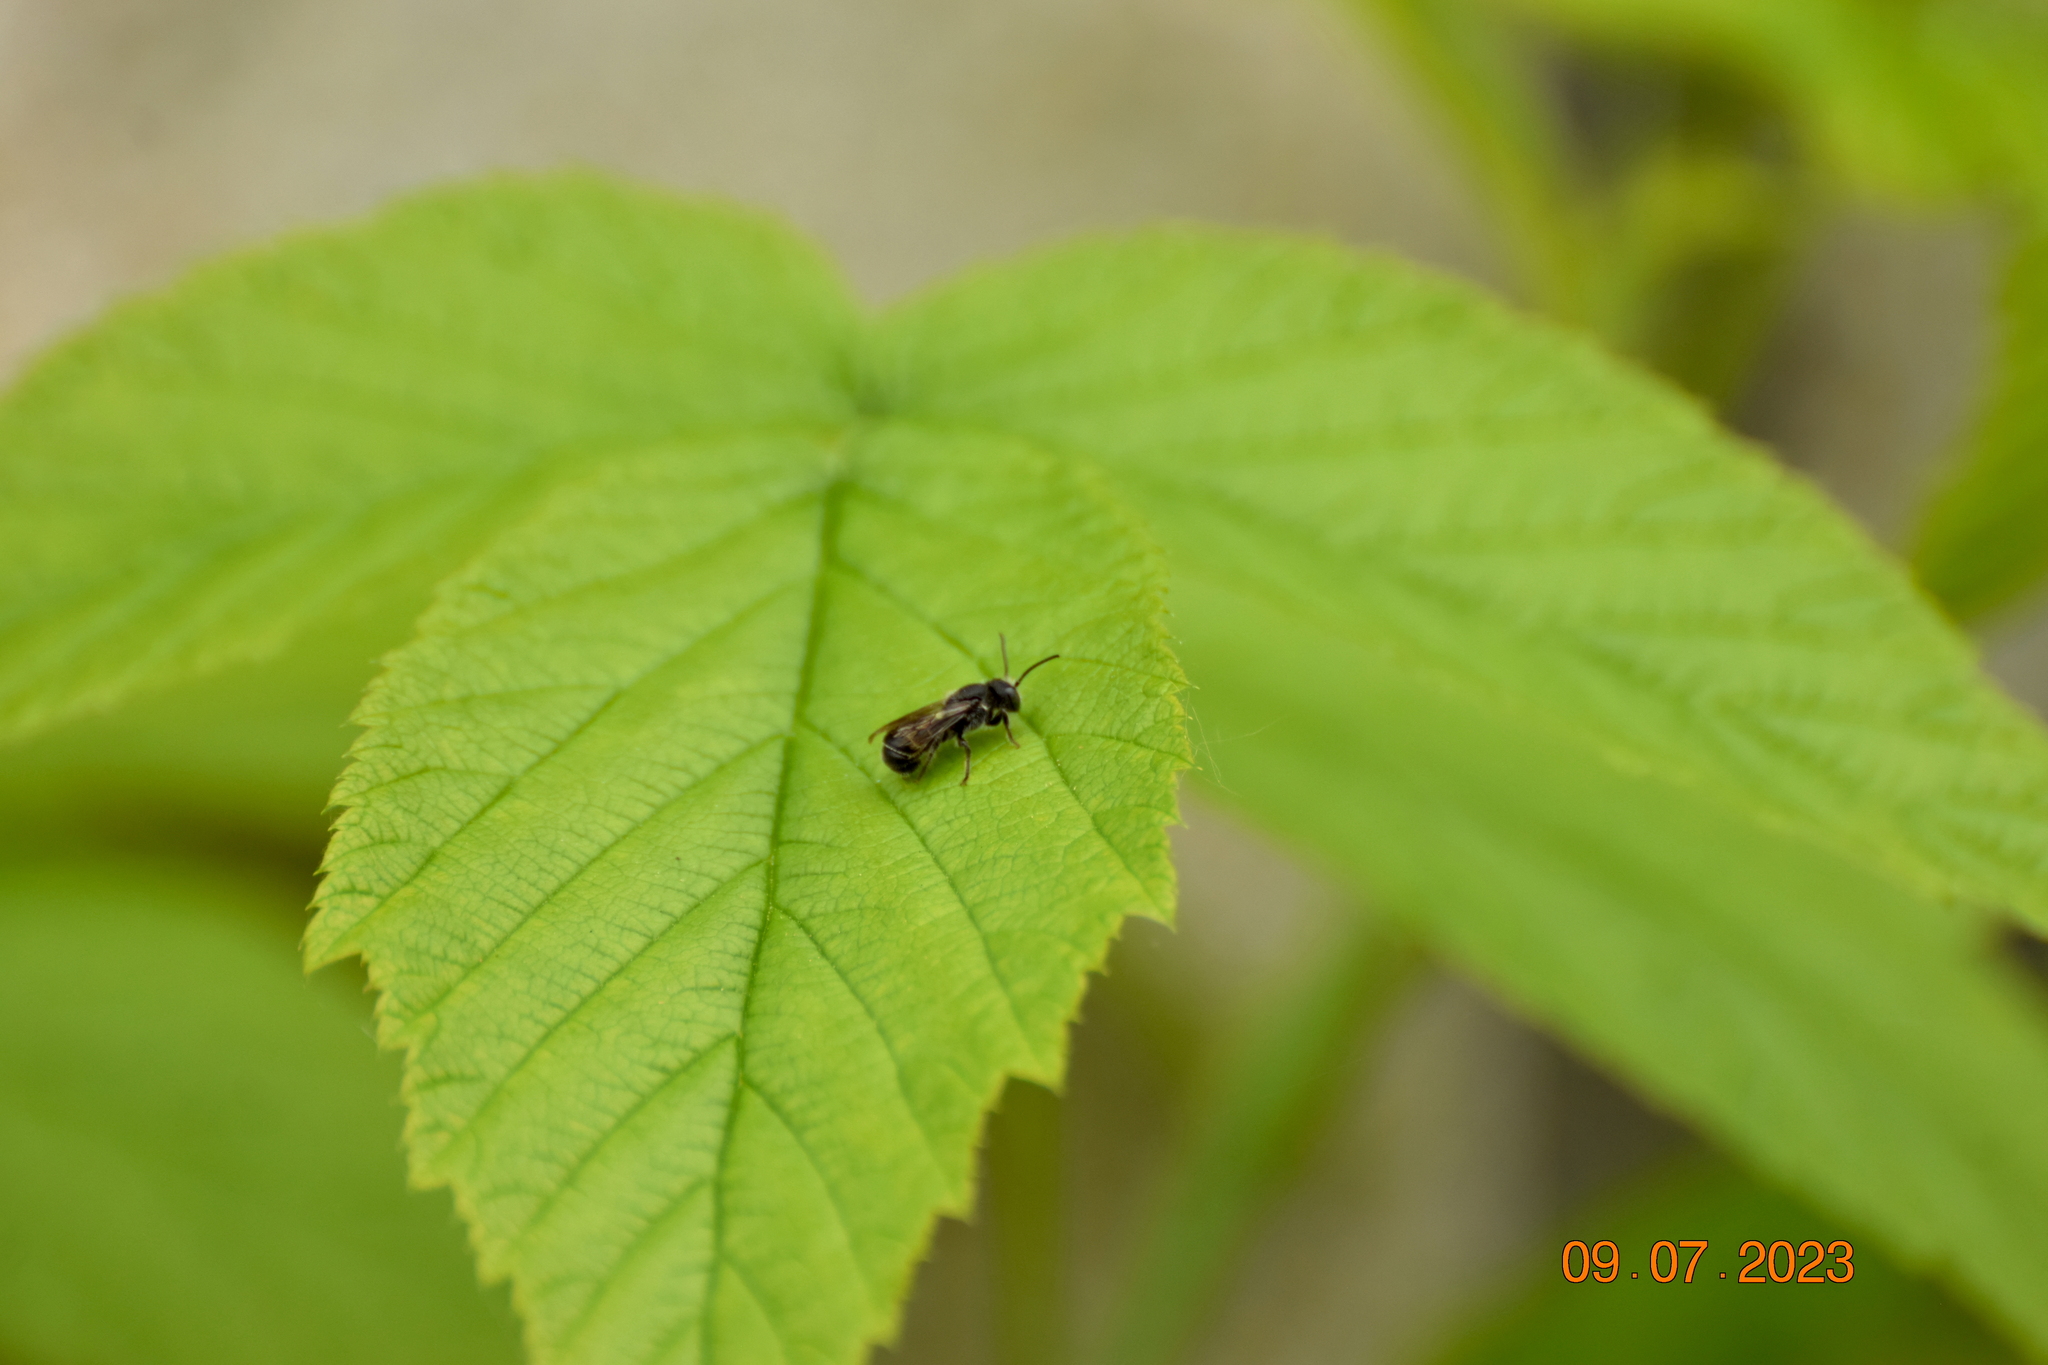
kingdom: Animalia
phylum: Arthropoda
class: Insecta
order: Hymenoptera
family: Megachilidae
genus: Chelostoma
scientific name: Chelostoma rapunculi
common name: Rampion scissor bee
